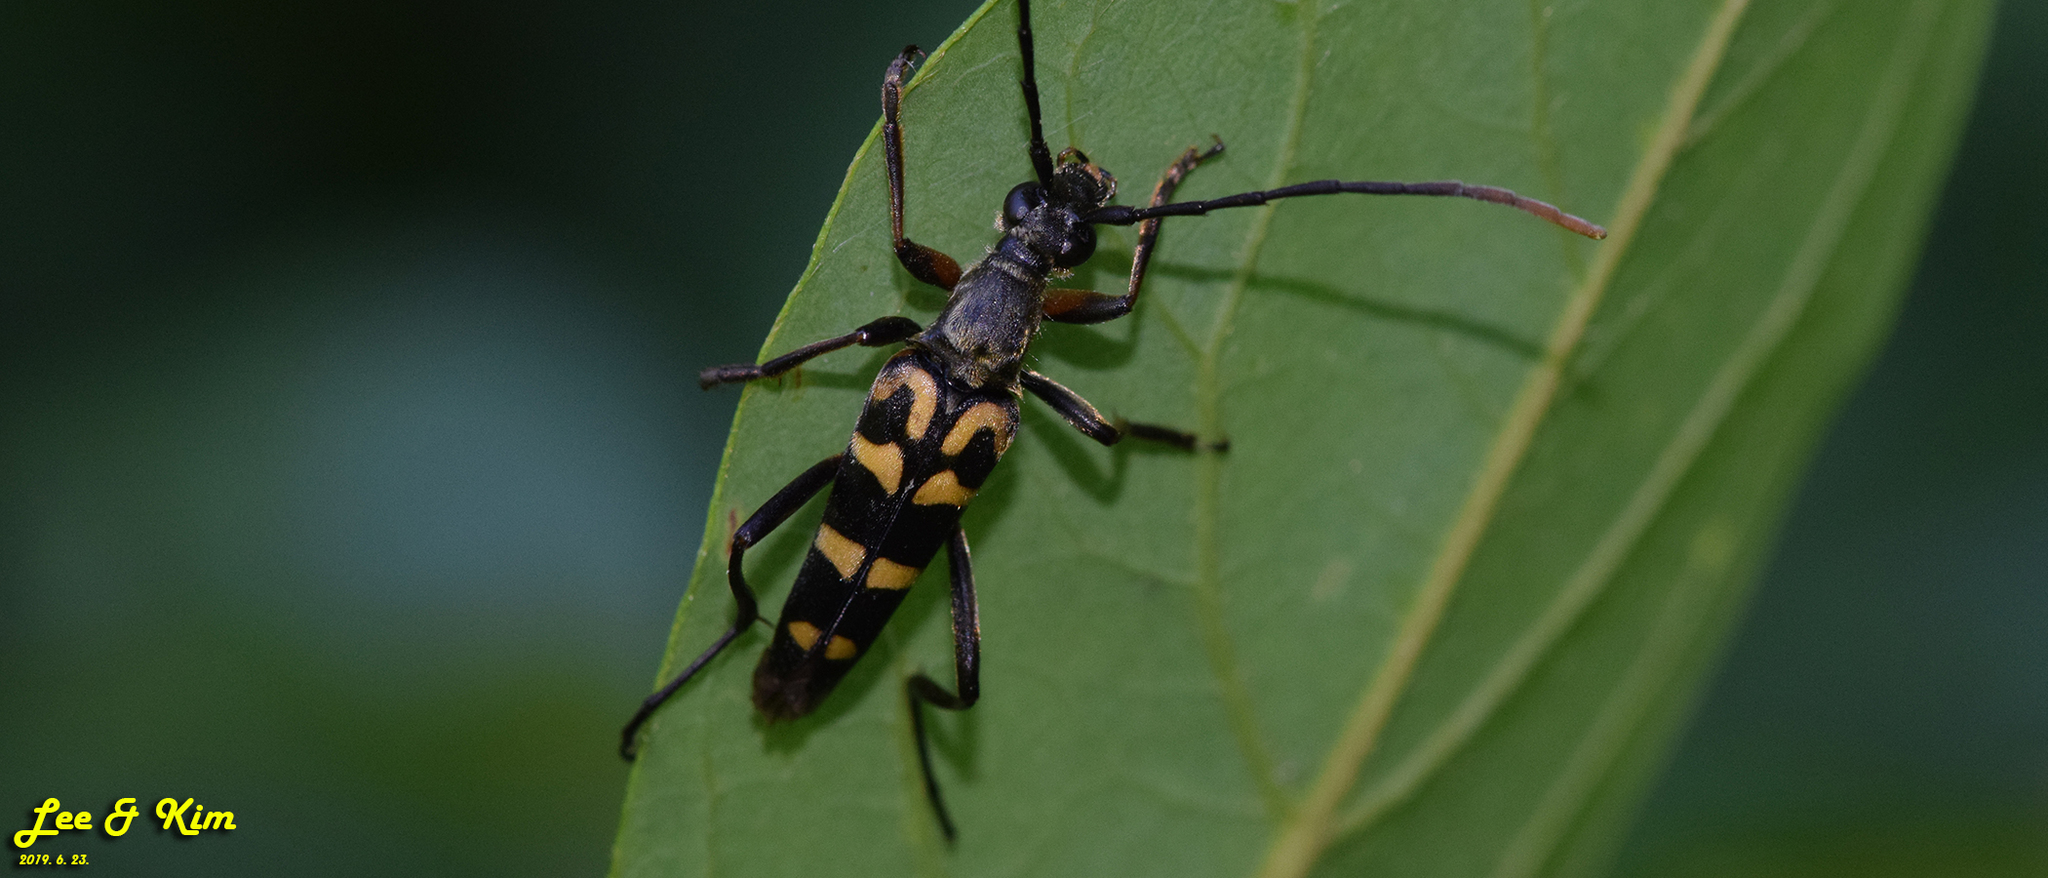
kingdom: Animalia
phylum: Arthropoda
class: Insecta
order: Coleoptera
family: Cerambycidae
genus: Leptura
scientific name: Leptura annularis
